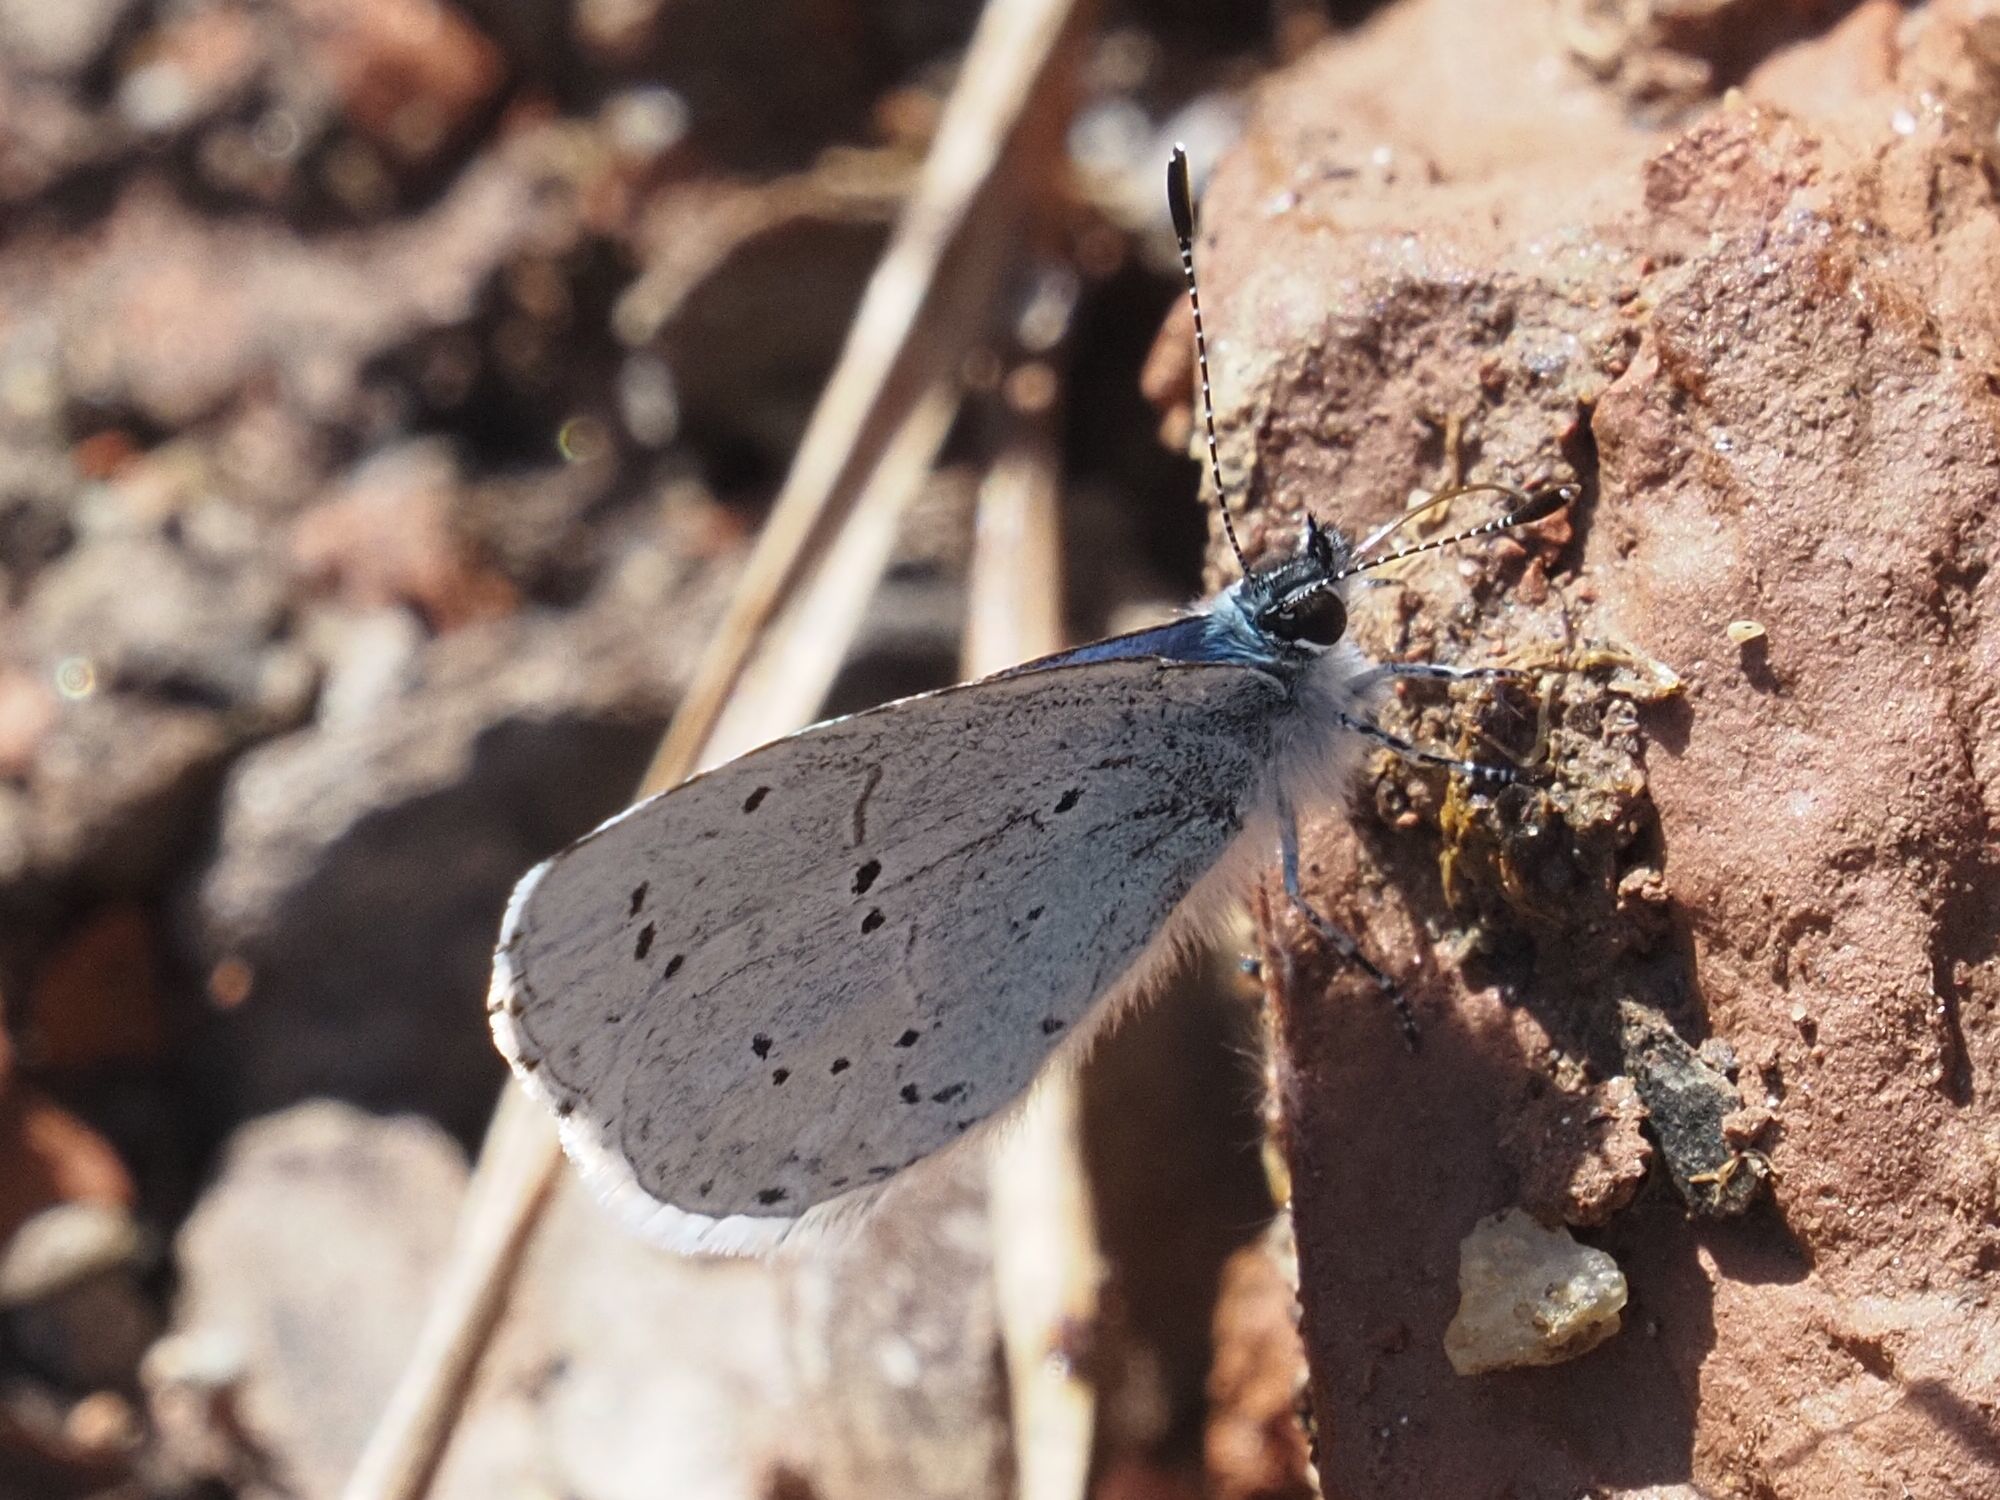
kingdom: Animalia
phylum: Arthropoda
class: Insecta
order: Lepidoptera
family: Lycaenidae
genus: Celastrina
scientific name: Celastrina argiolus
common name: Holly blue
